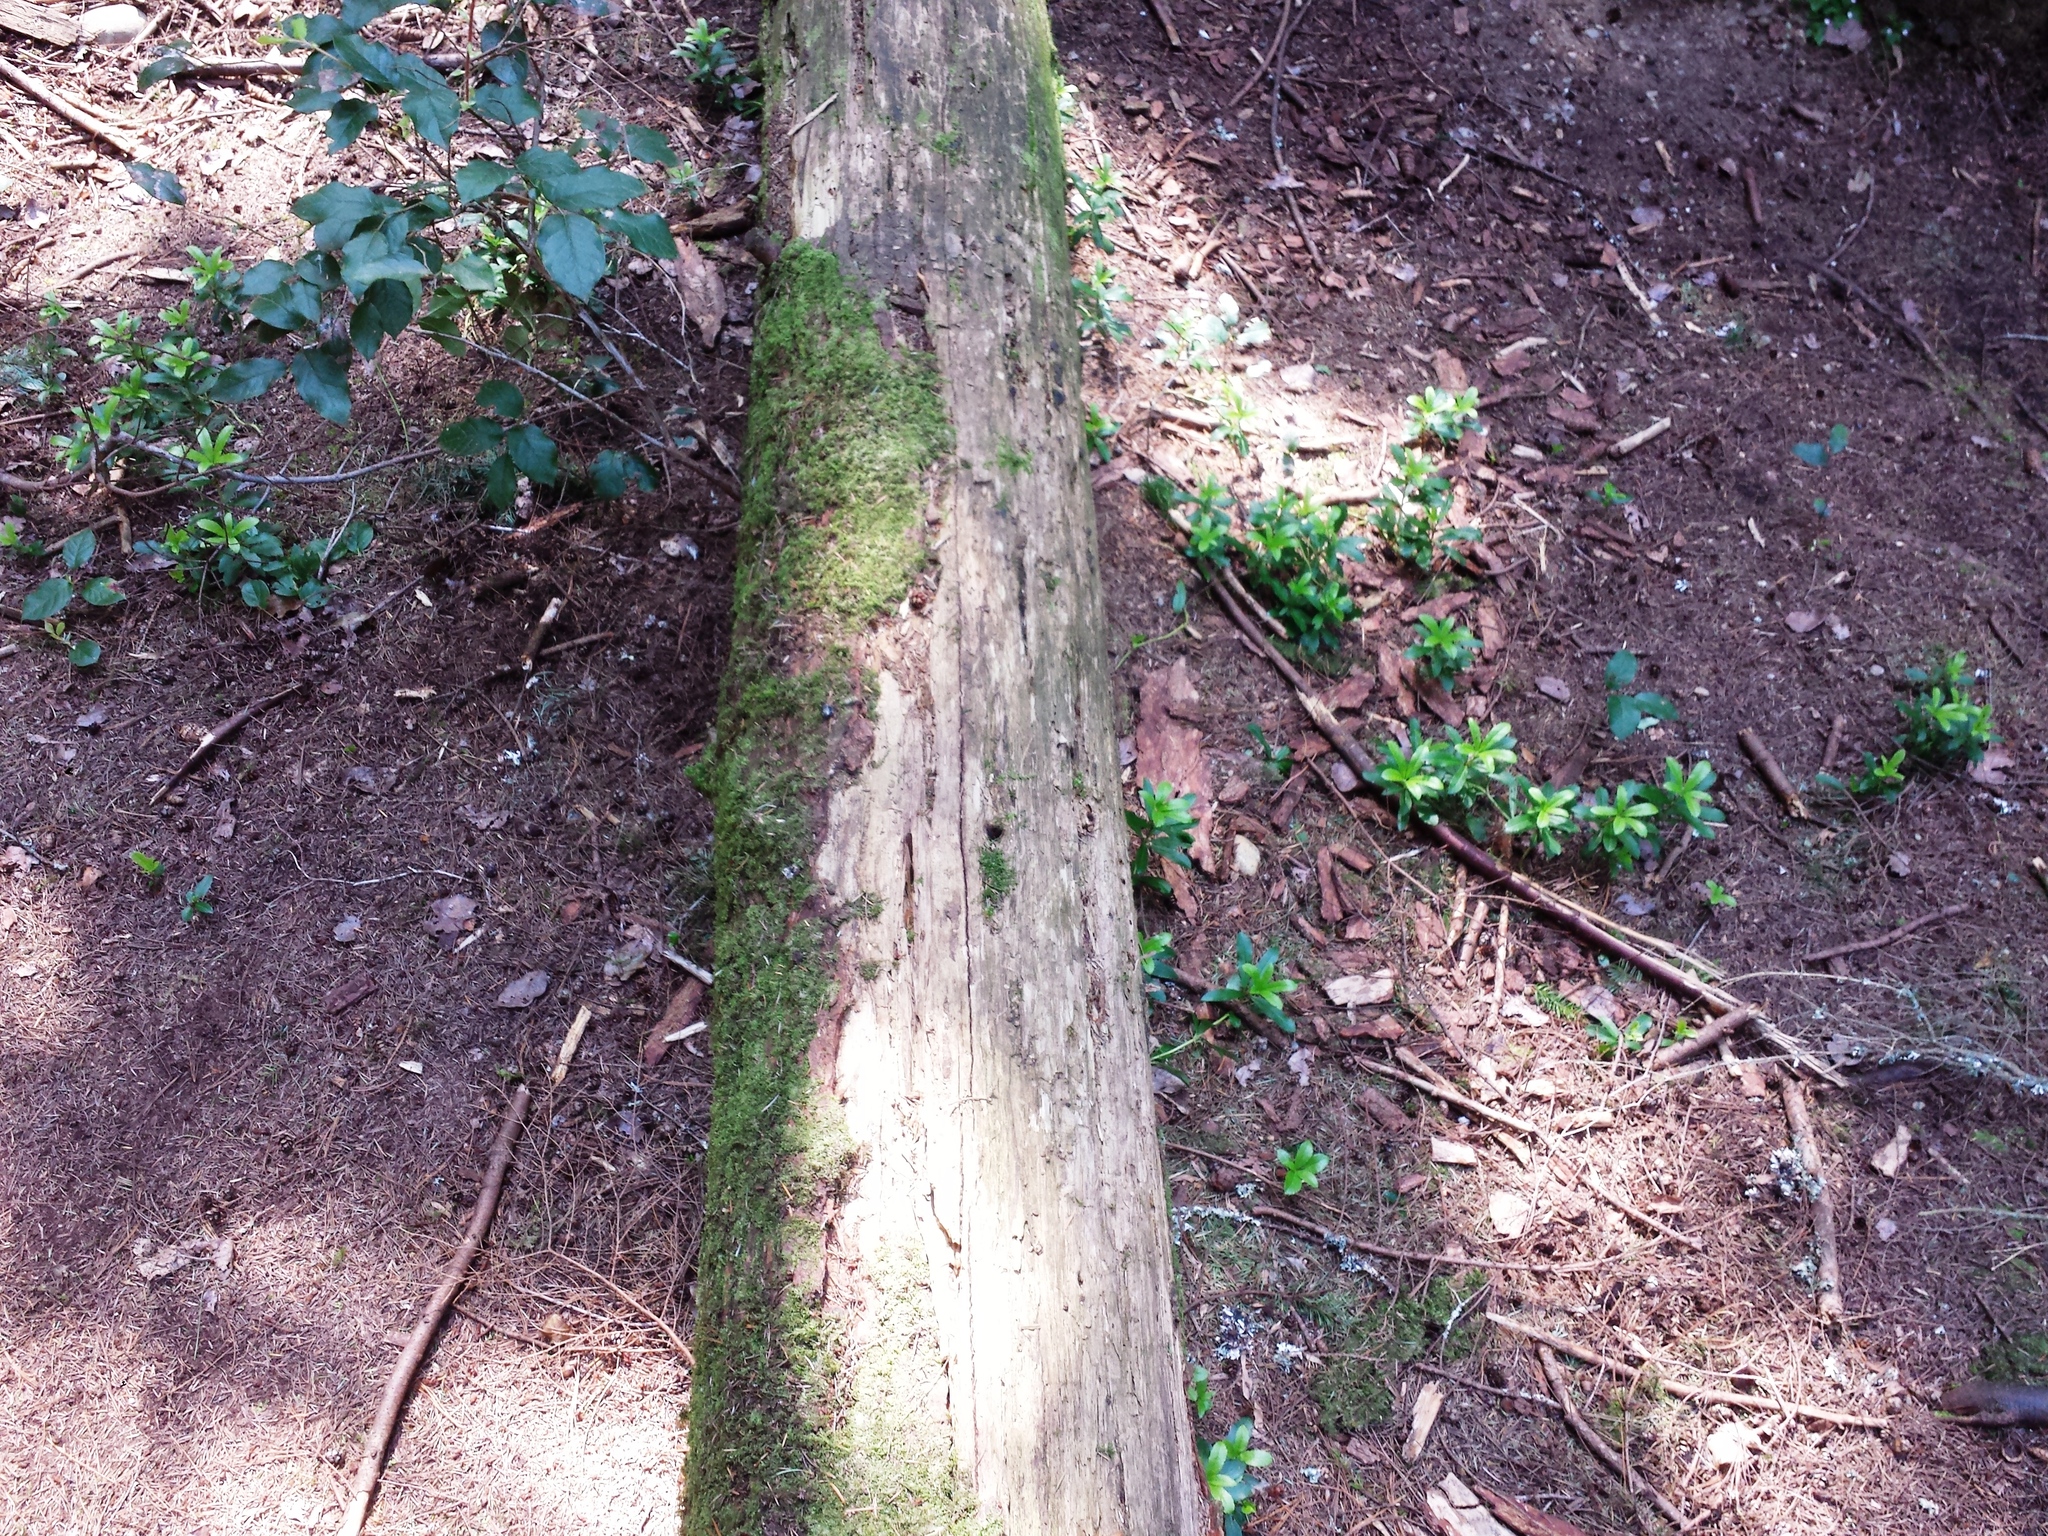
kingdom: Plantae
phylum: Tracheophyta
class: Magnoliopsida
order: Ericales
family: Ericaceae
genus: Chimaphila
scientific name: Chimaphila umbellata
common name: Pipsissewa
